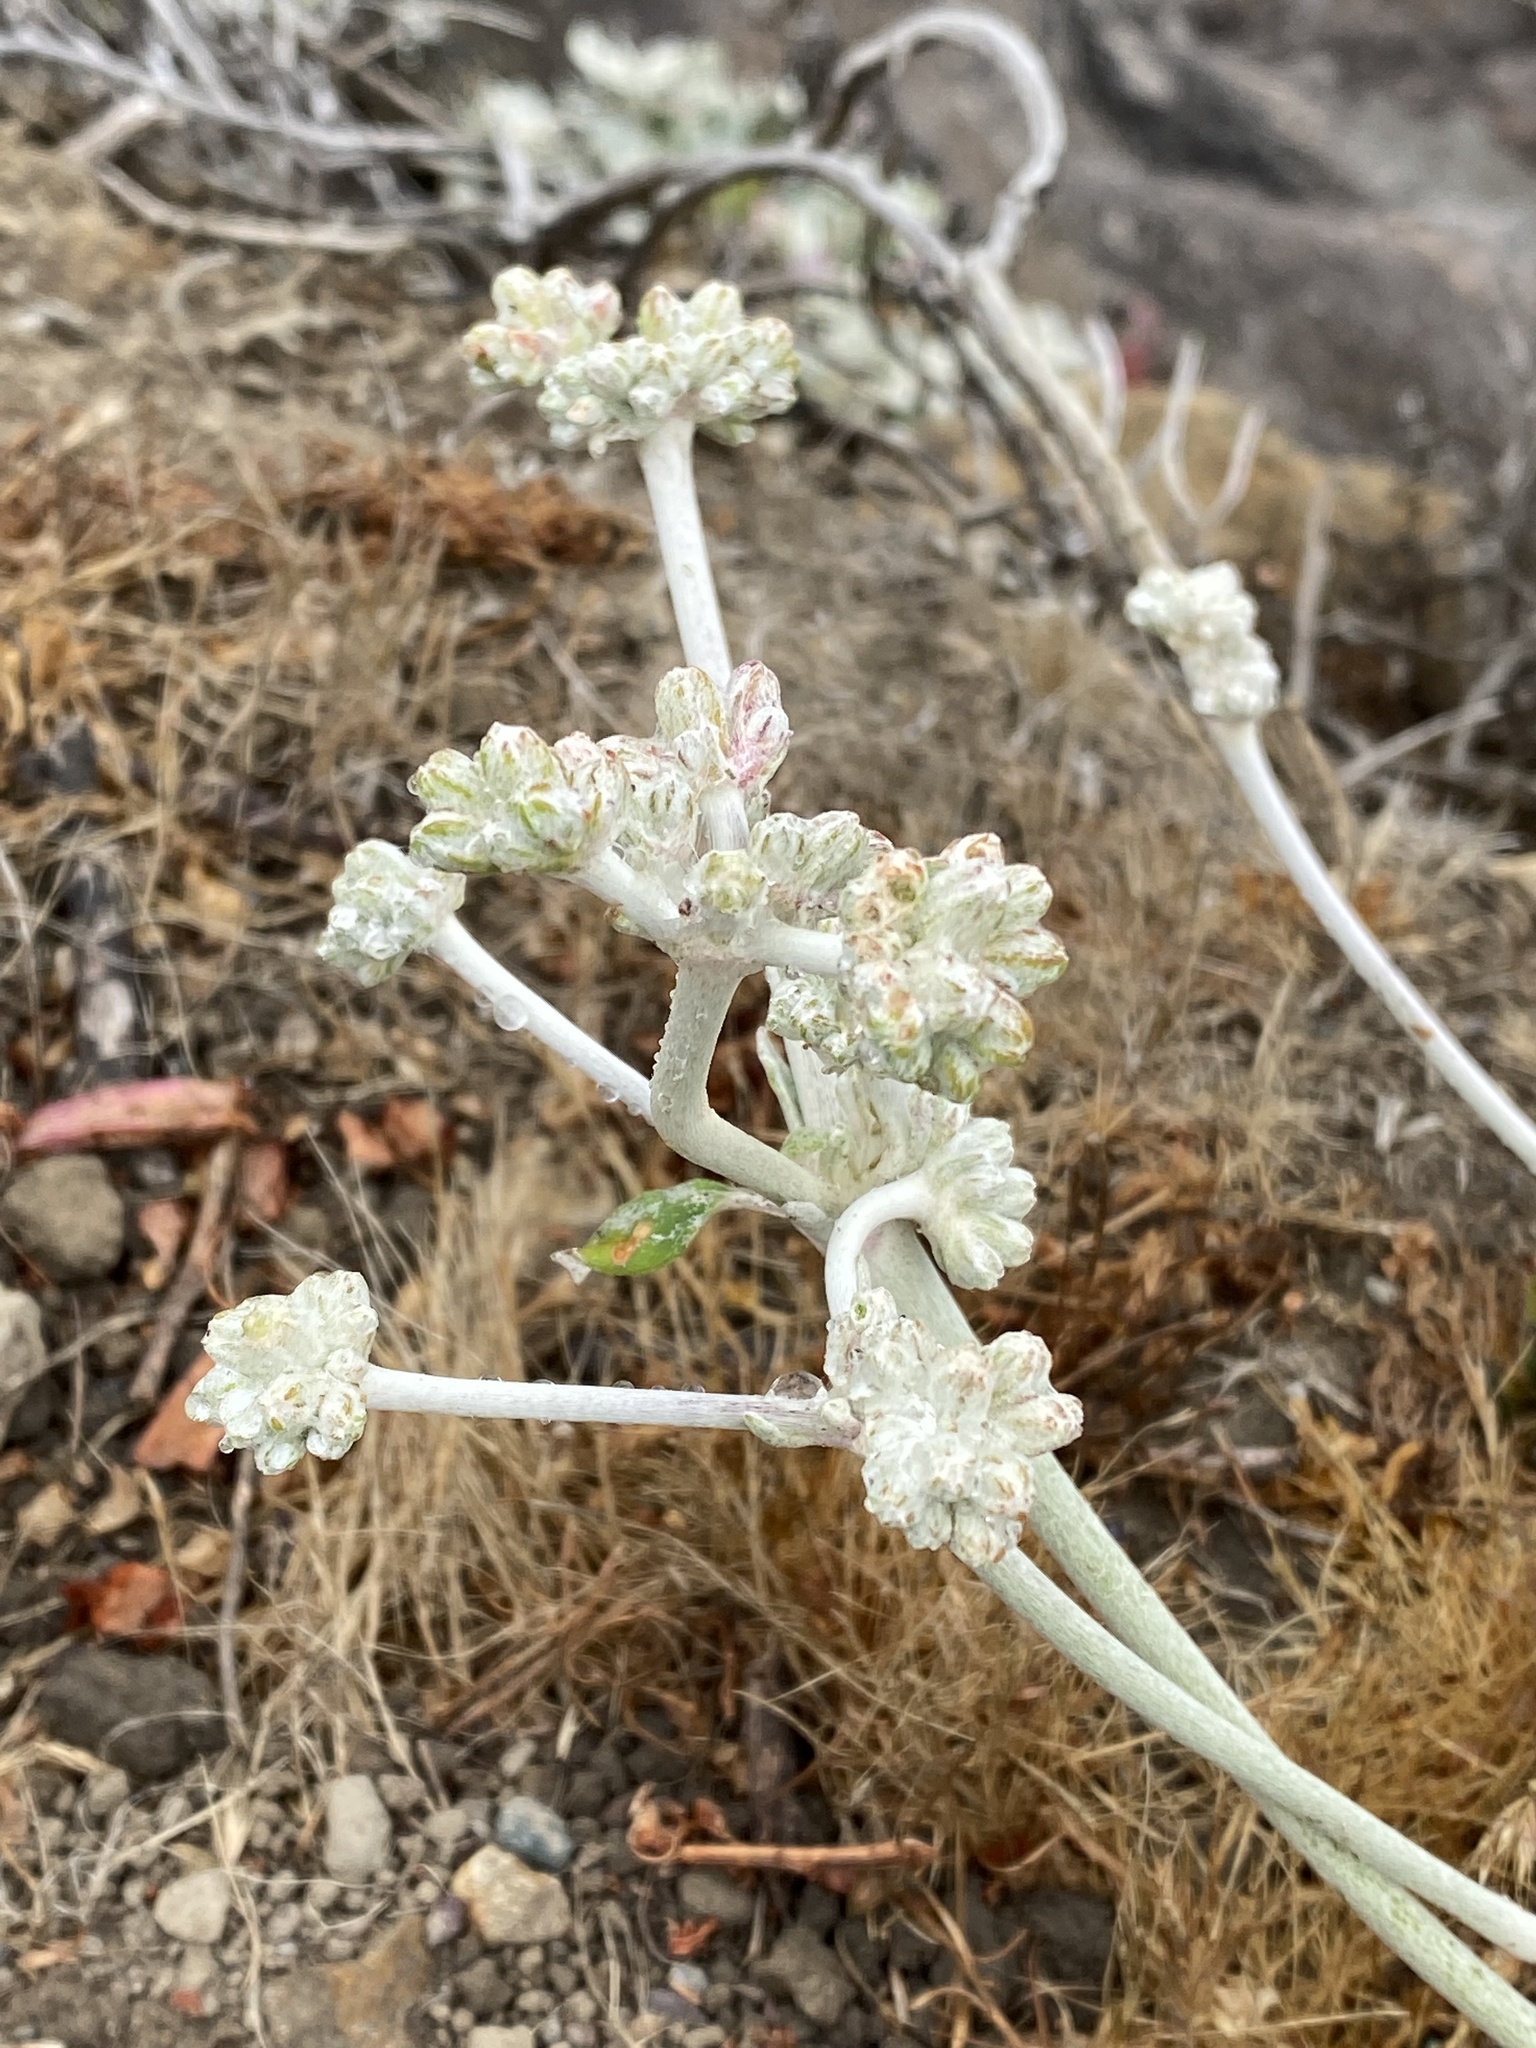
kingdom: Plantae
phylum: Tracheophyta
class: Magnoliopsida
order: Caryophyllales
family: Polygonaceae
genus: Eriogonum
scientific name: Eriogonum latifolium
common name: Seaside wild buckwheat
